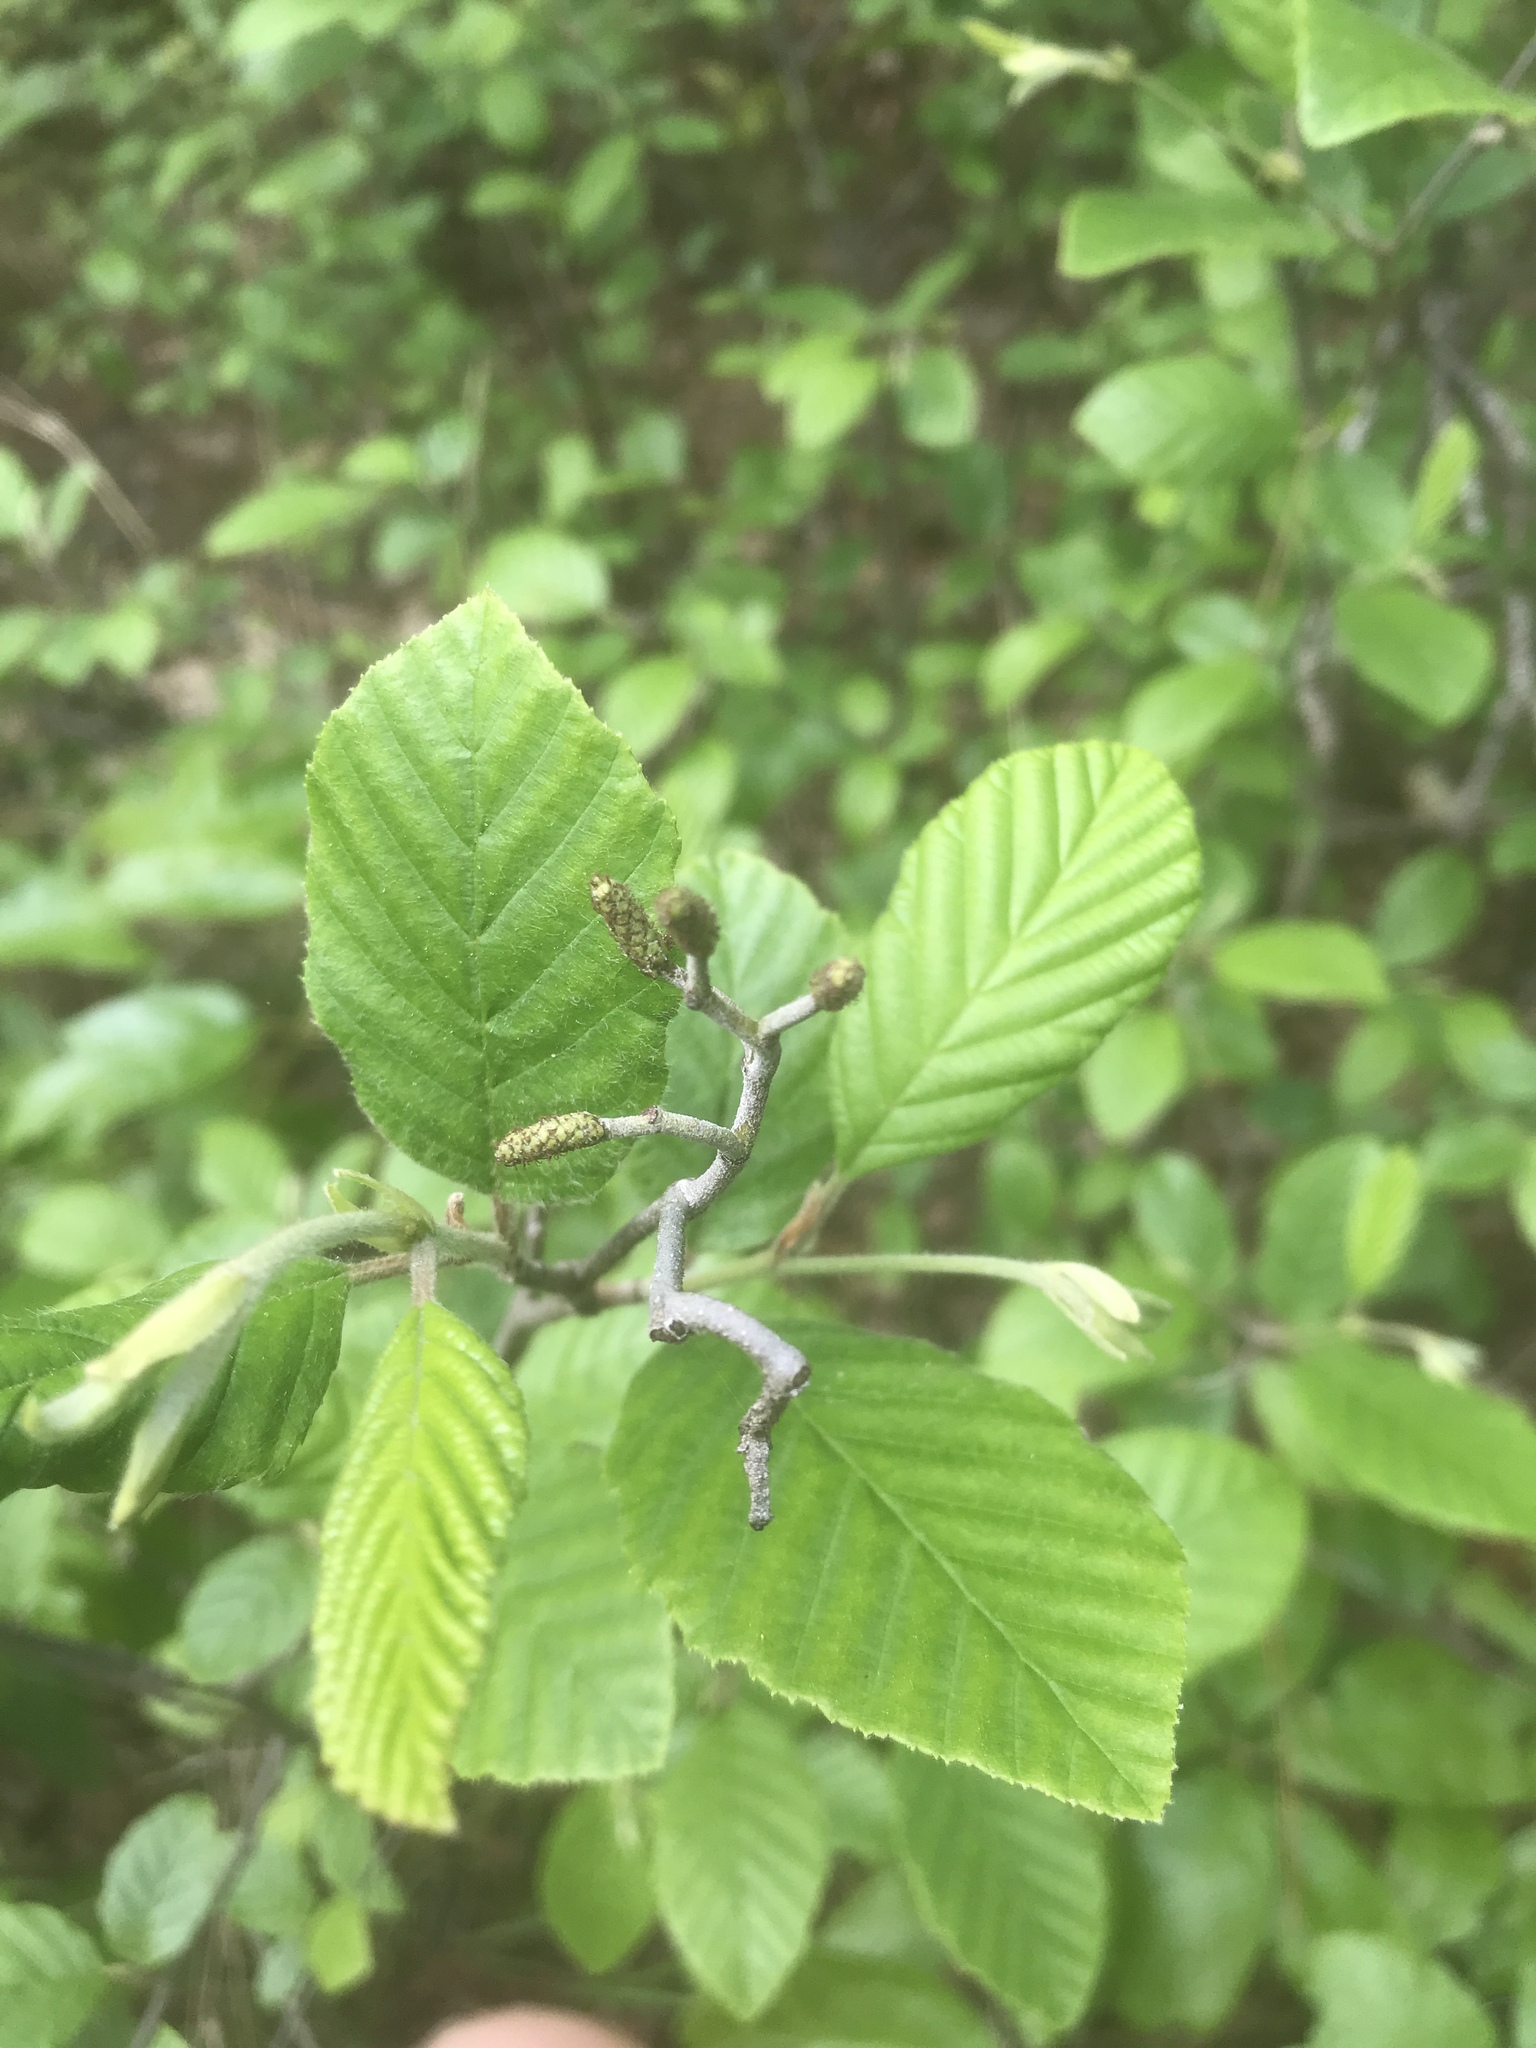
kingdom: Plantae
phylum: Tracheophyta
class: Magnoliopsida
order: Fagales
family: Betulaceae
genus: Alnus
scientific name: Alnus serrulata
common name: Hazel alder
